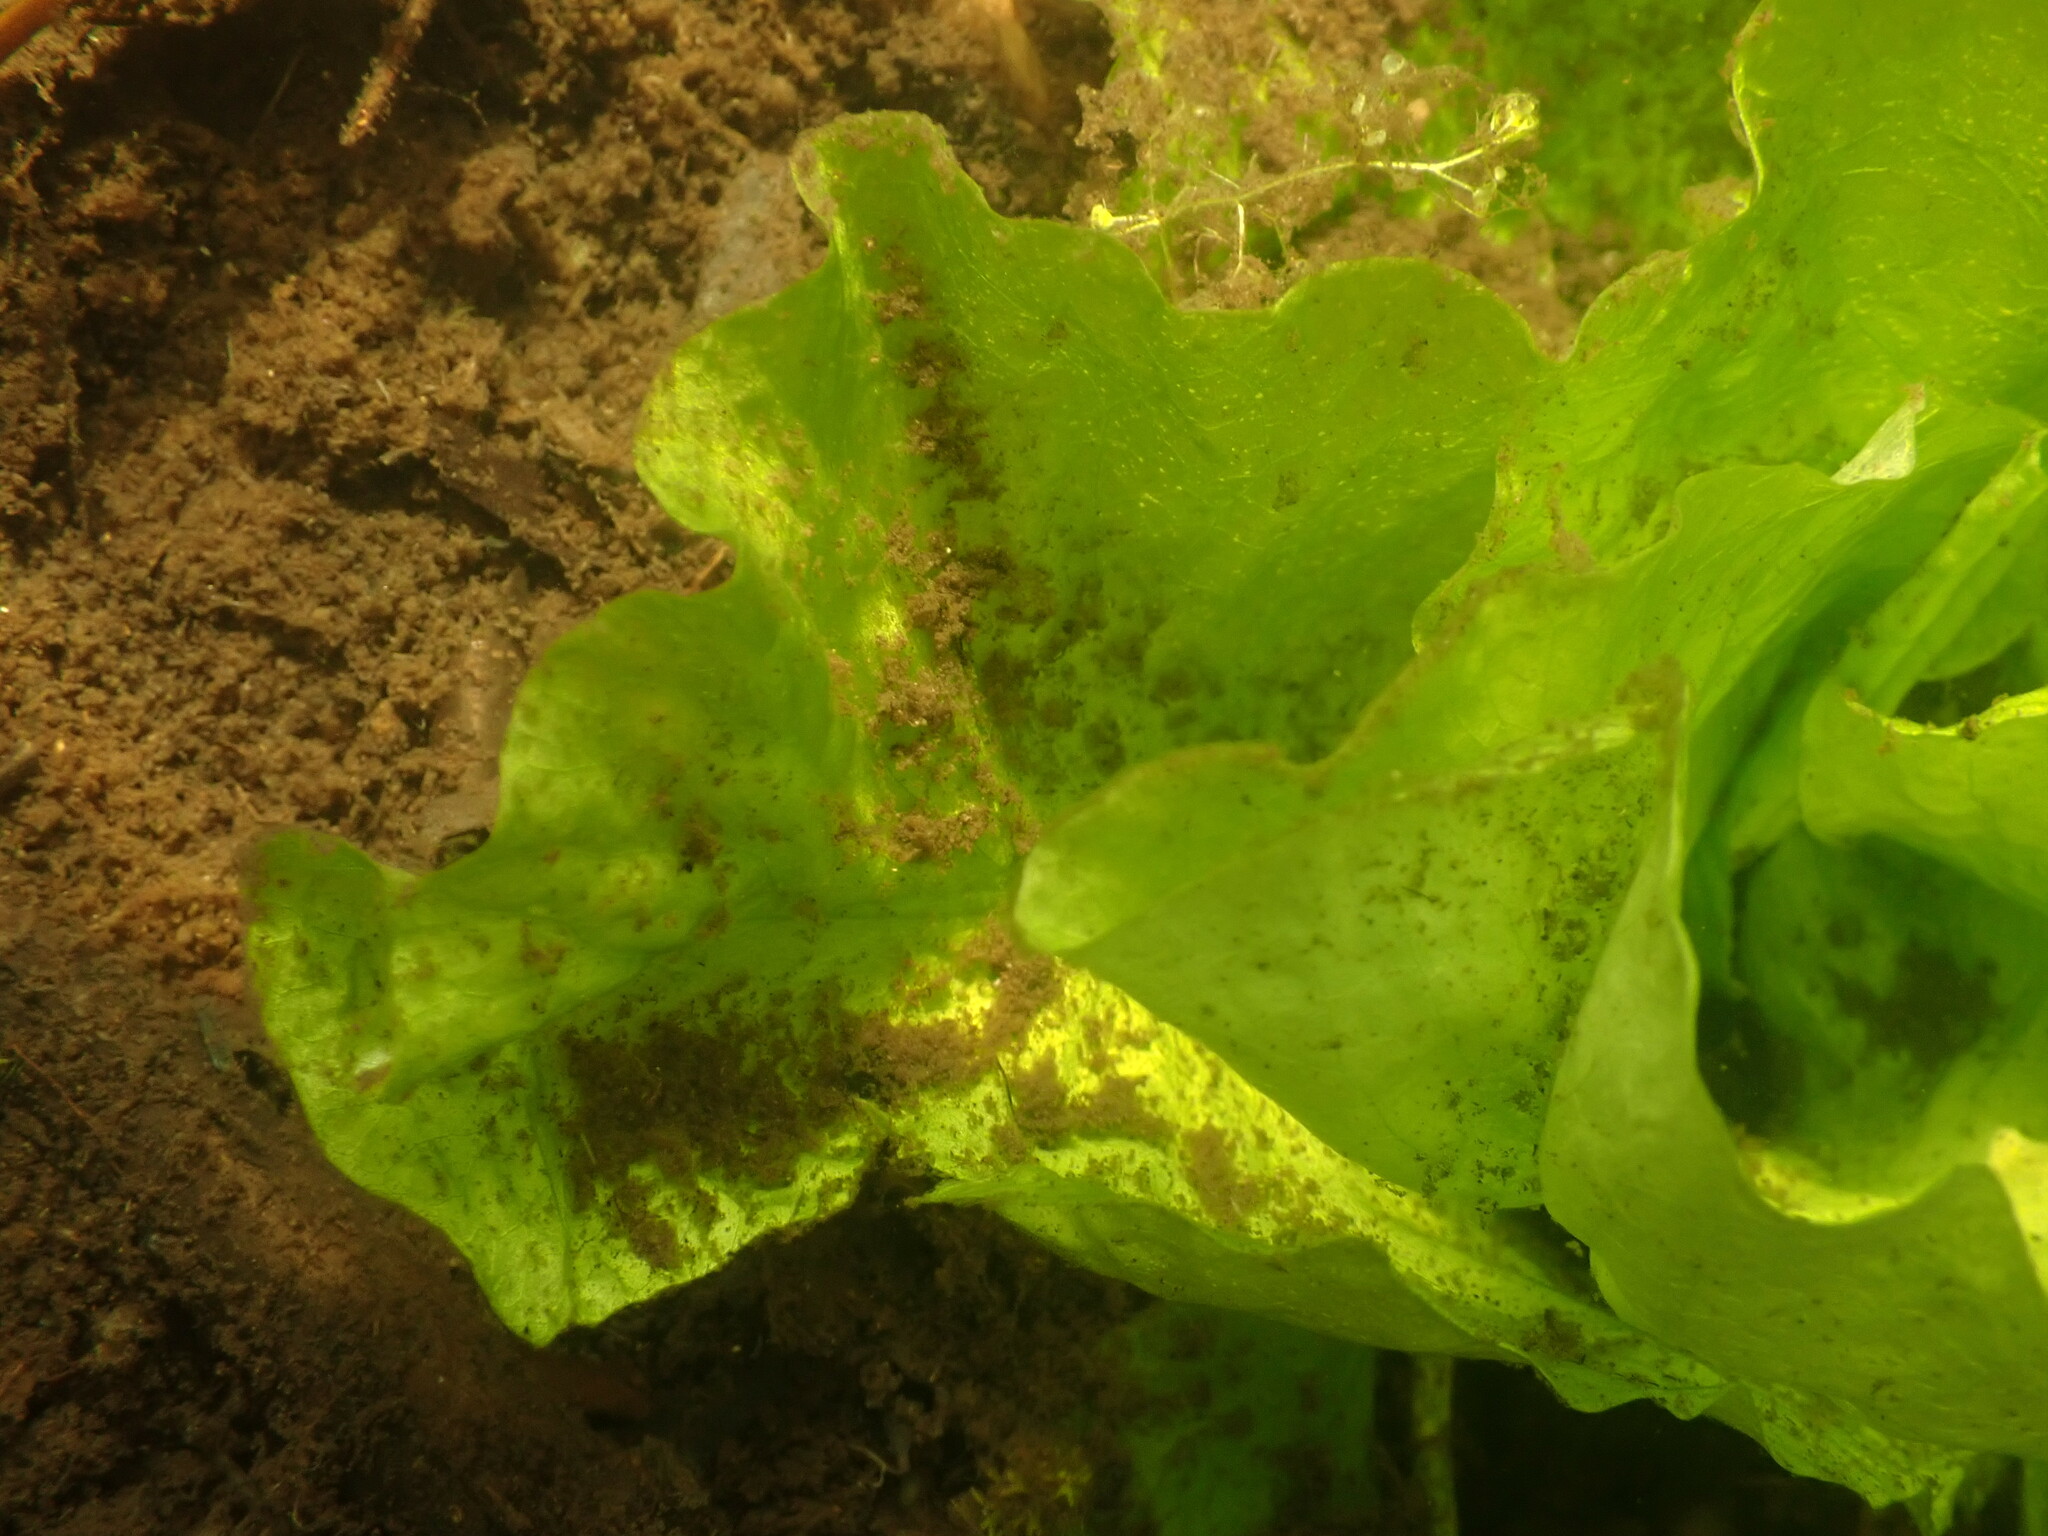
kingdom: Plantae
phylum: Tracheophyta
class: Magnoliopsida
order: Nymphaeales
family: Nymphaeaceae
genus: Nuphar
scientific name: Nuphar polysepala
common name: Rocky mountain cow-lily
